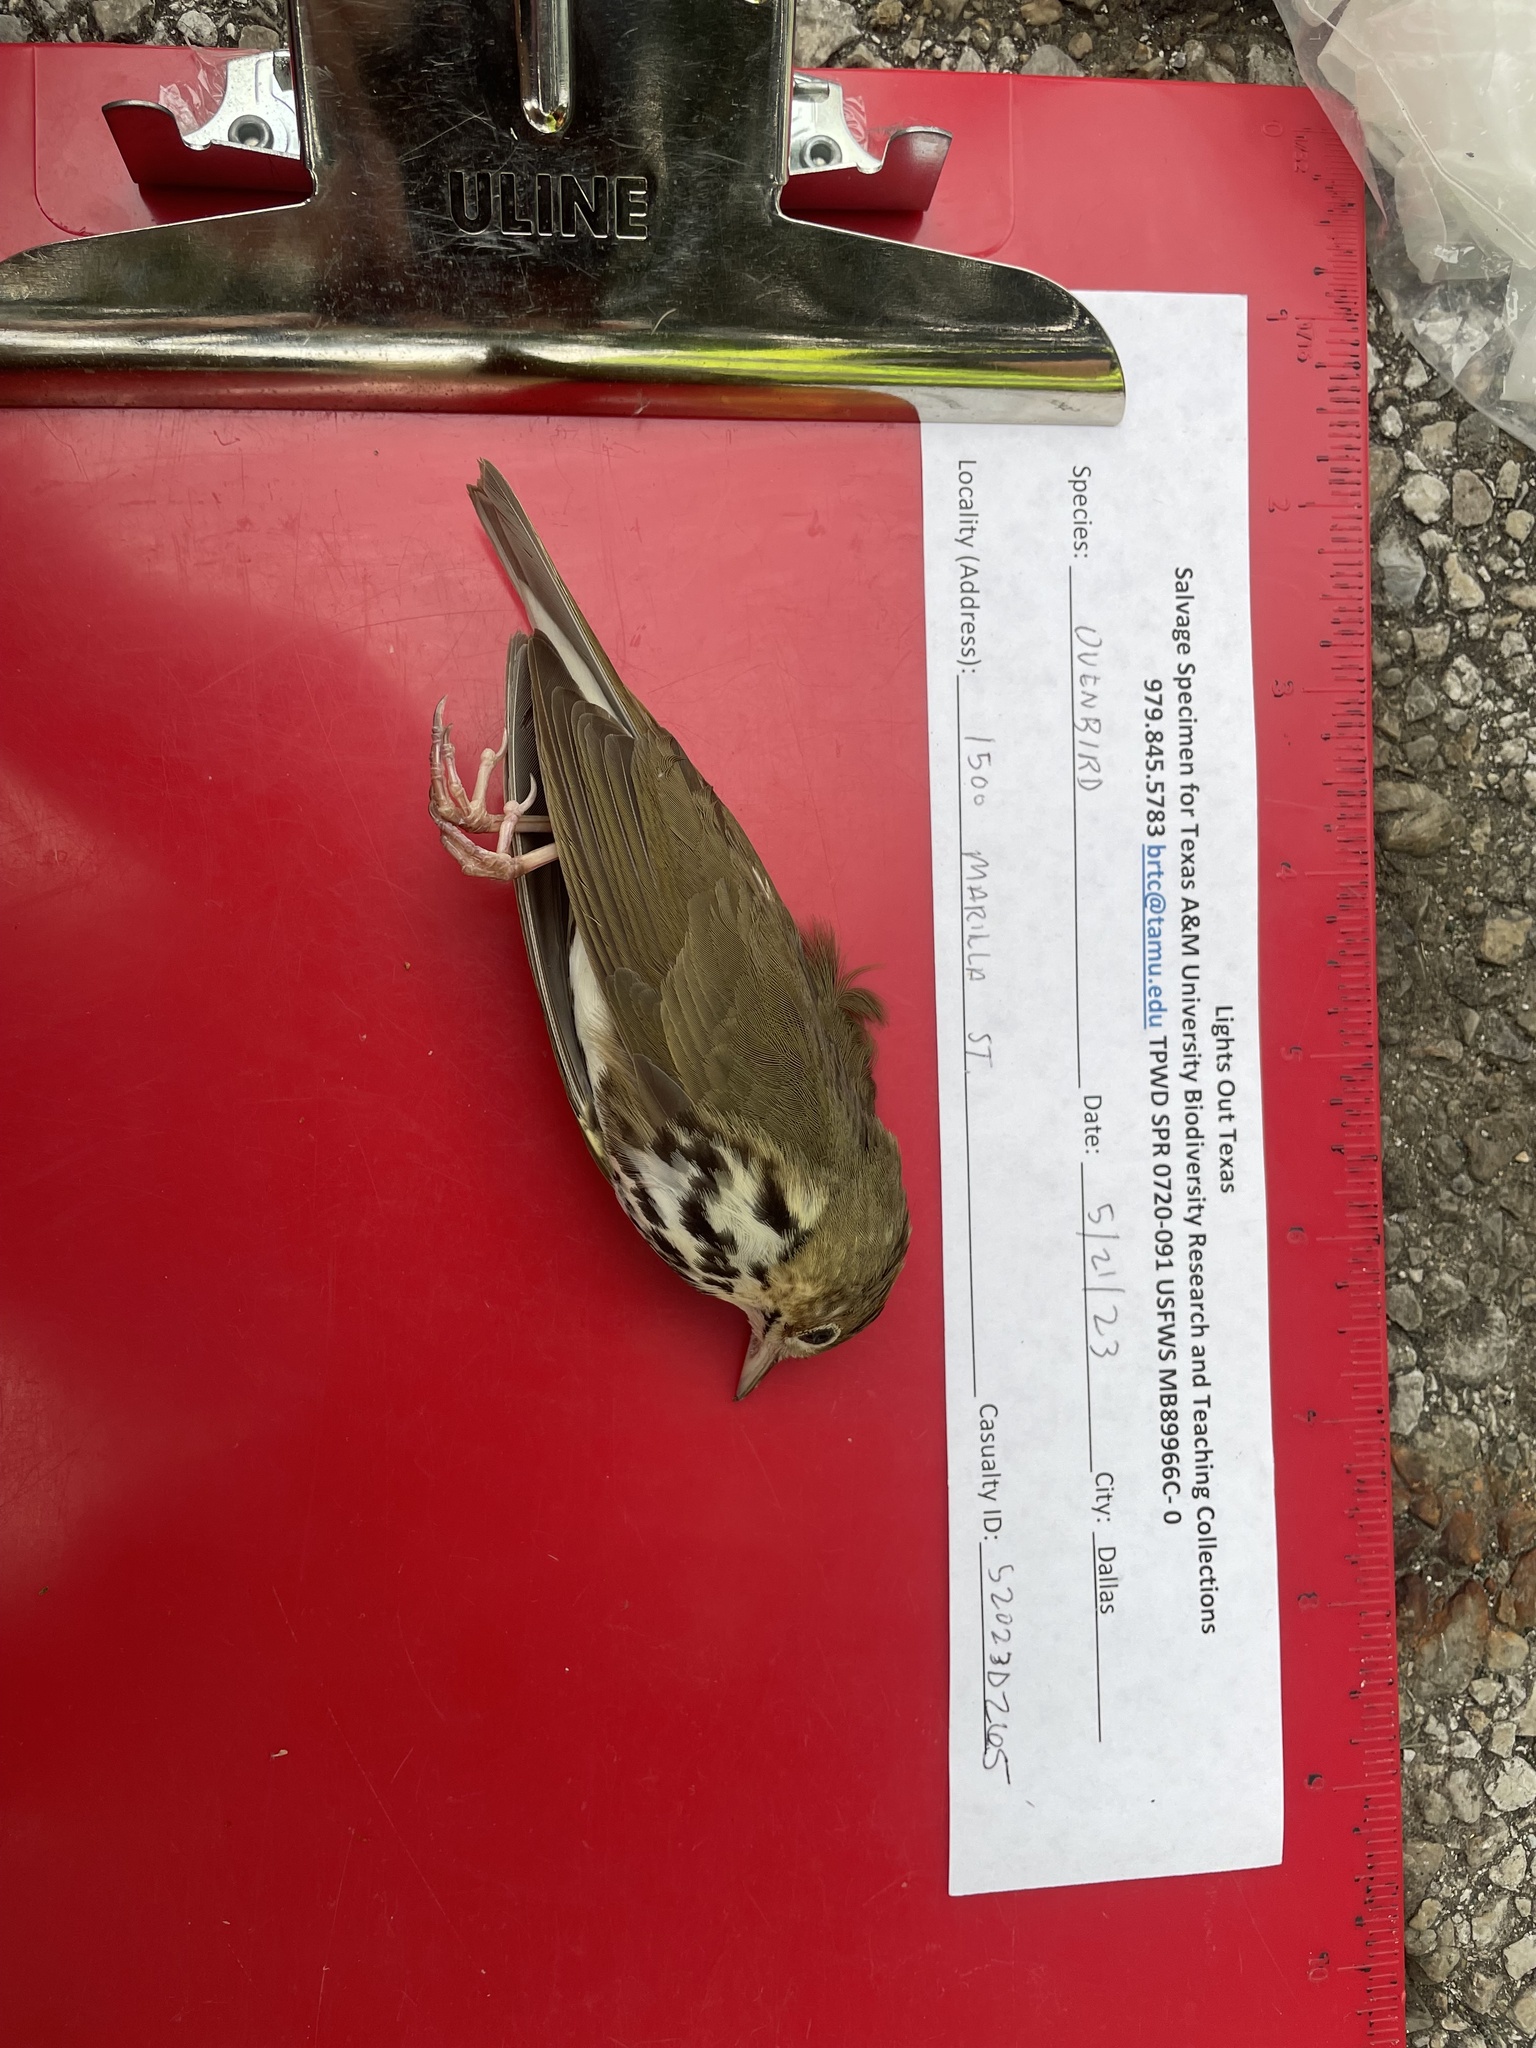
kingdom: Animalia
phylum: Chordata
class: Aves
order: Passeriformes
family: Parulidae
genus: Seiurus
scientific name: Seiurus aurocapilla
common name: Ovenbird
